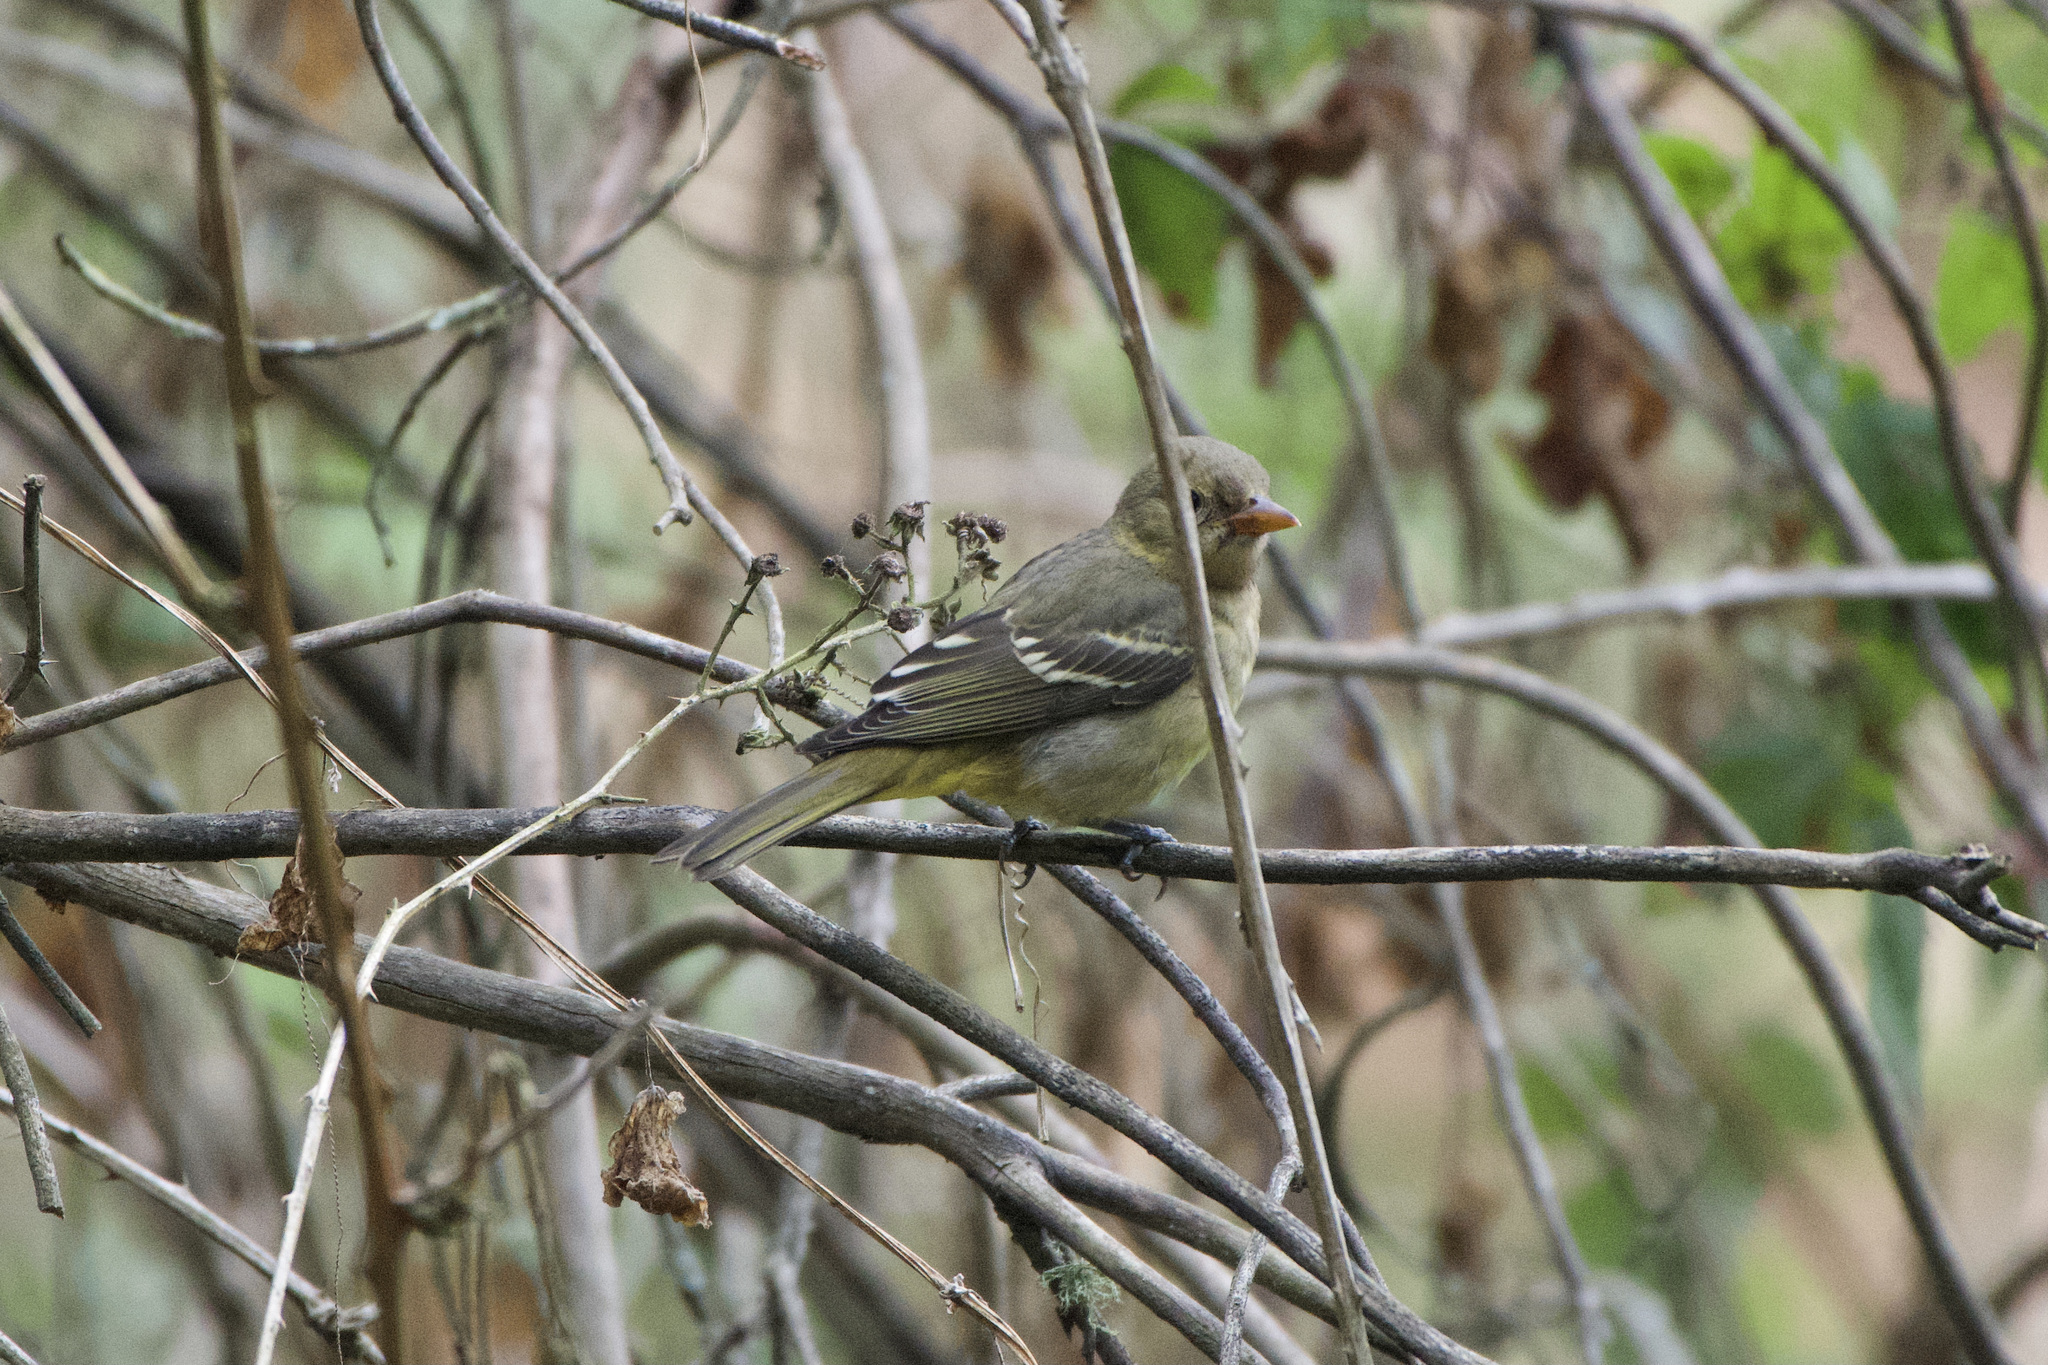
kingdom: Animalia
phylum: Chordata
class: Aves
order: Passeriformes
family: Cardinalidae
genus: Piranga
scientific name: Piranga ludoviciana
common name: Western tanager
